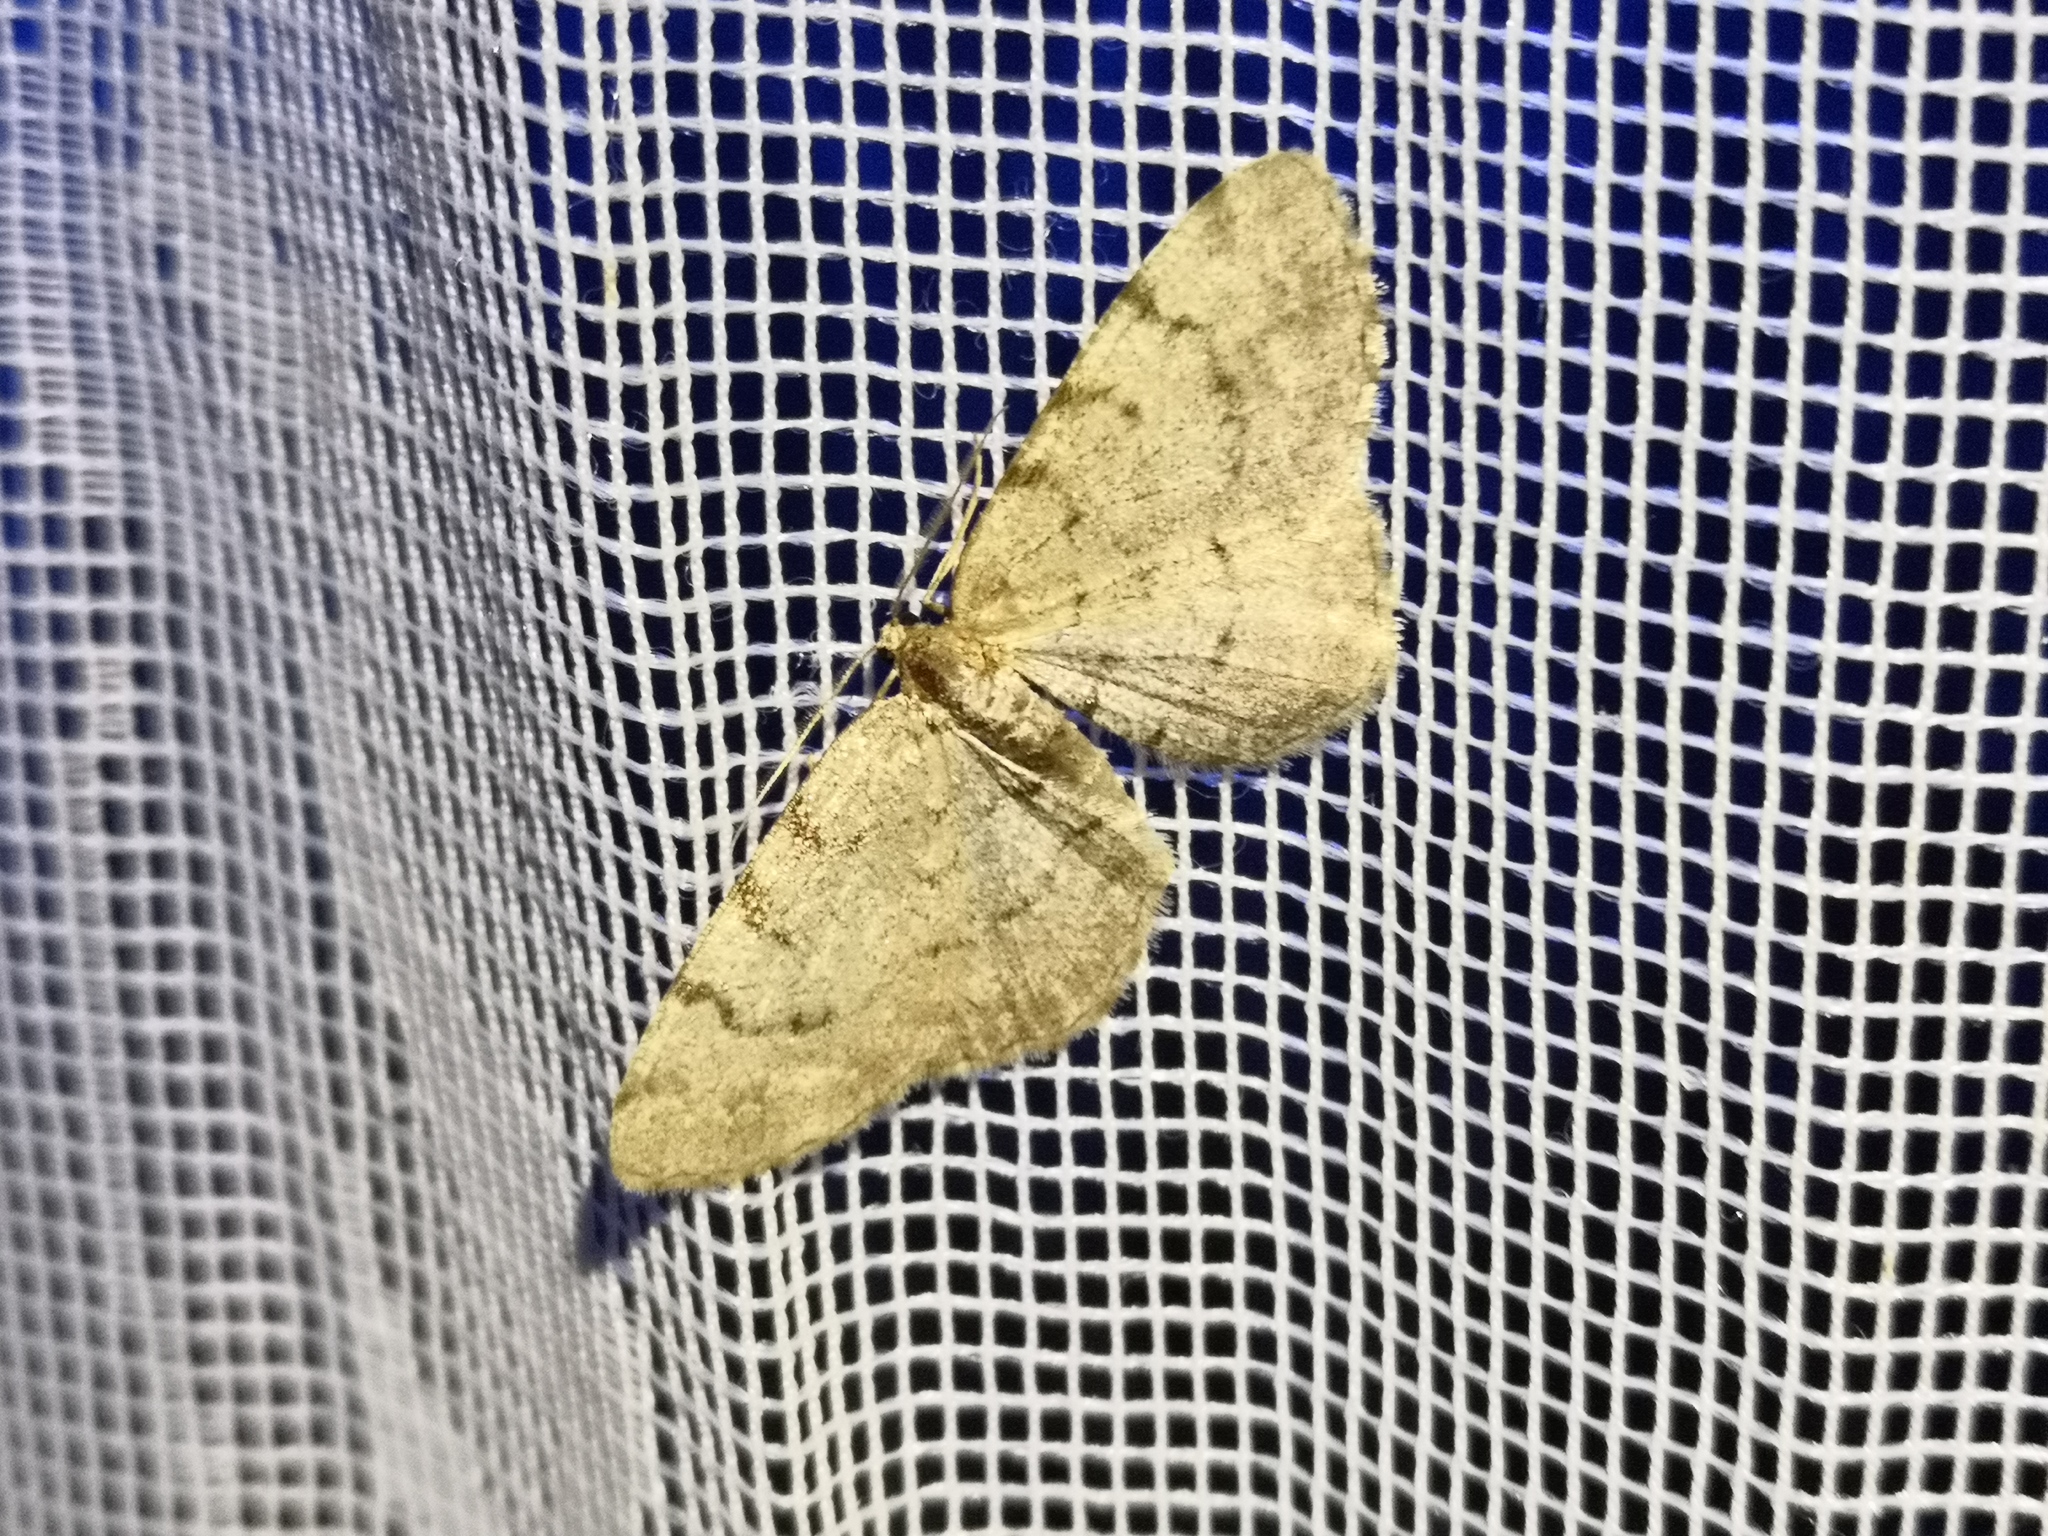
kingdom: Animalia
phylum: Arthropoda
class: Insecta
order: Lepidoptera
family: Geometridae
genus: Aethalura
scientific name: Aethalura punctulata
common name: Grey birch
